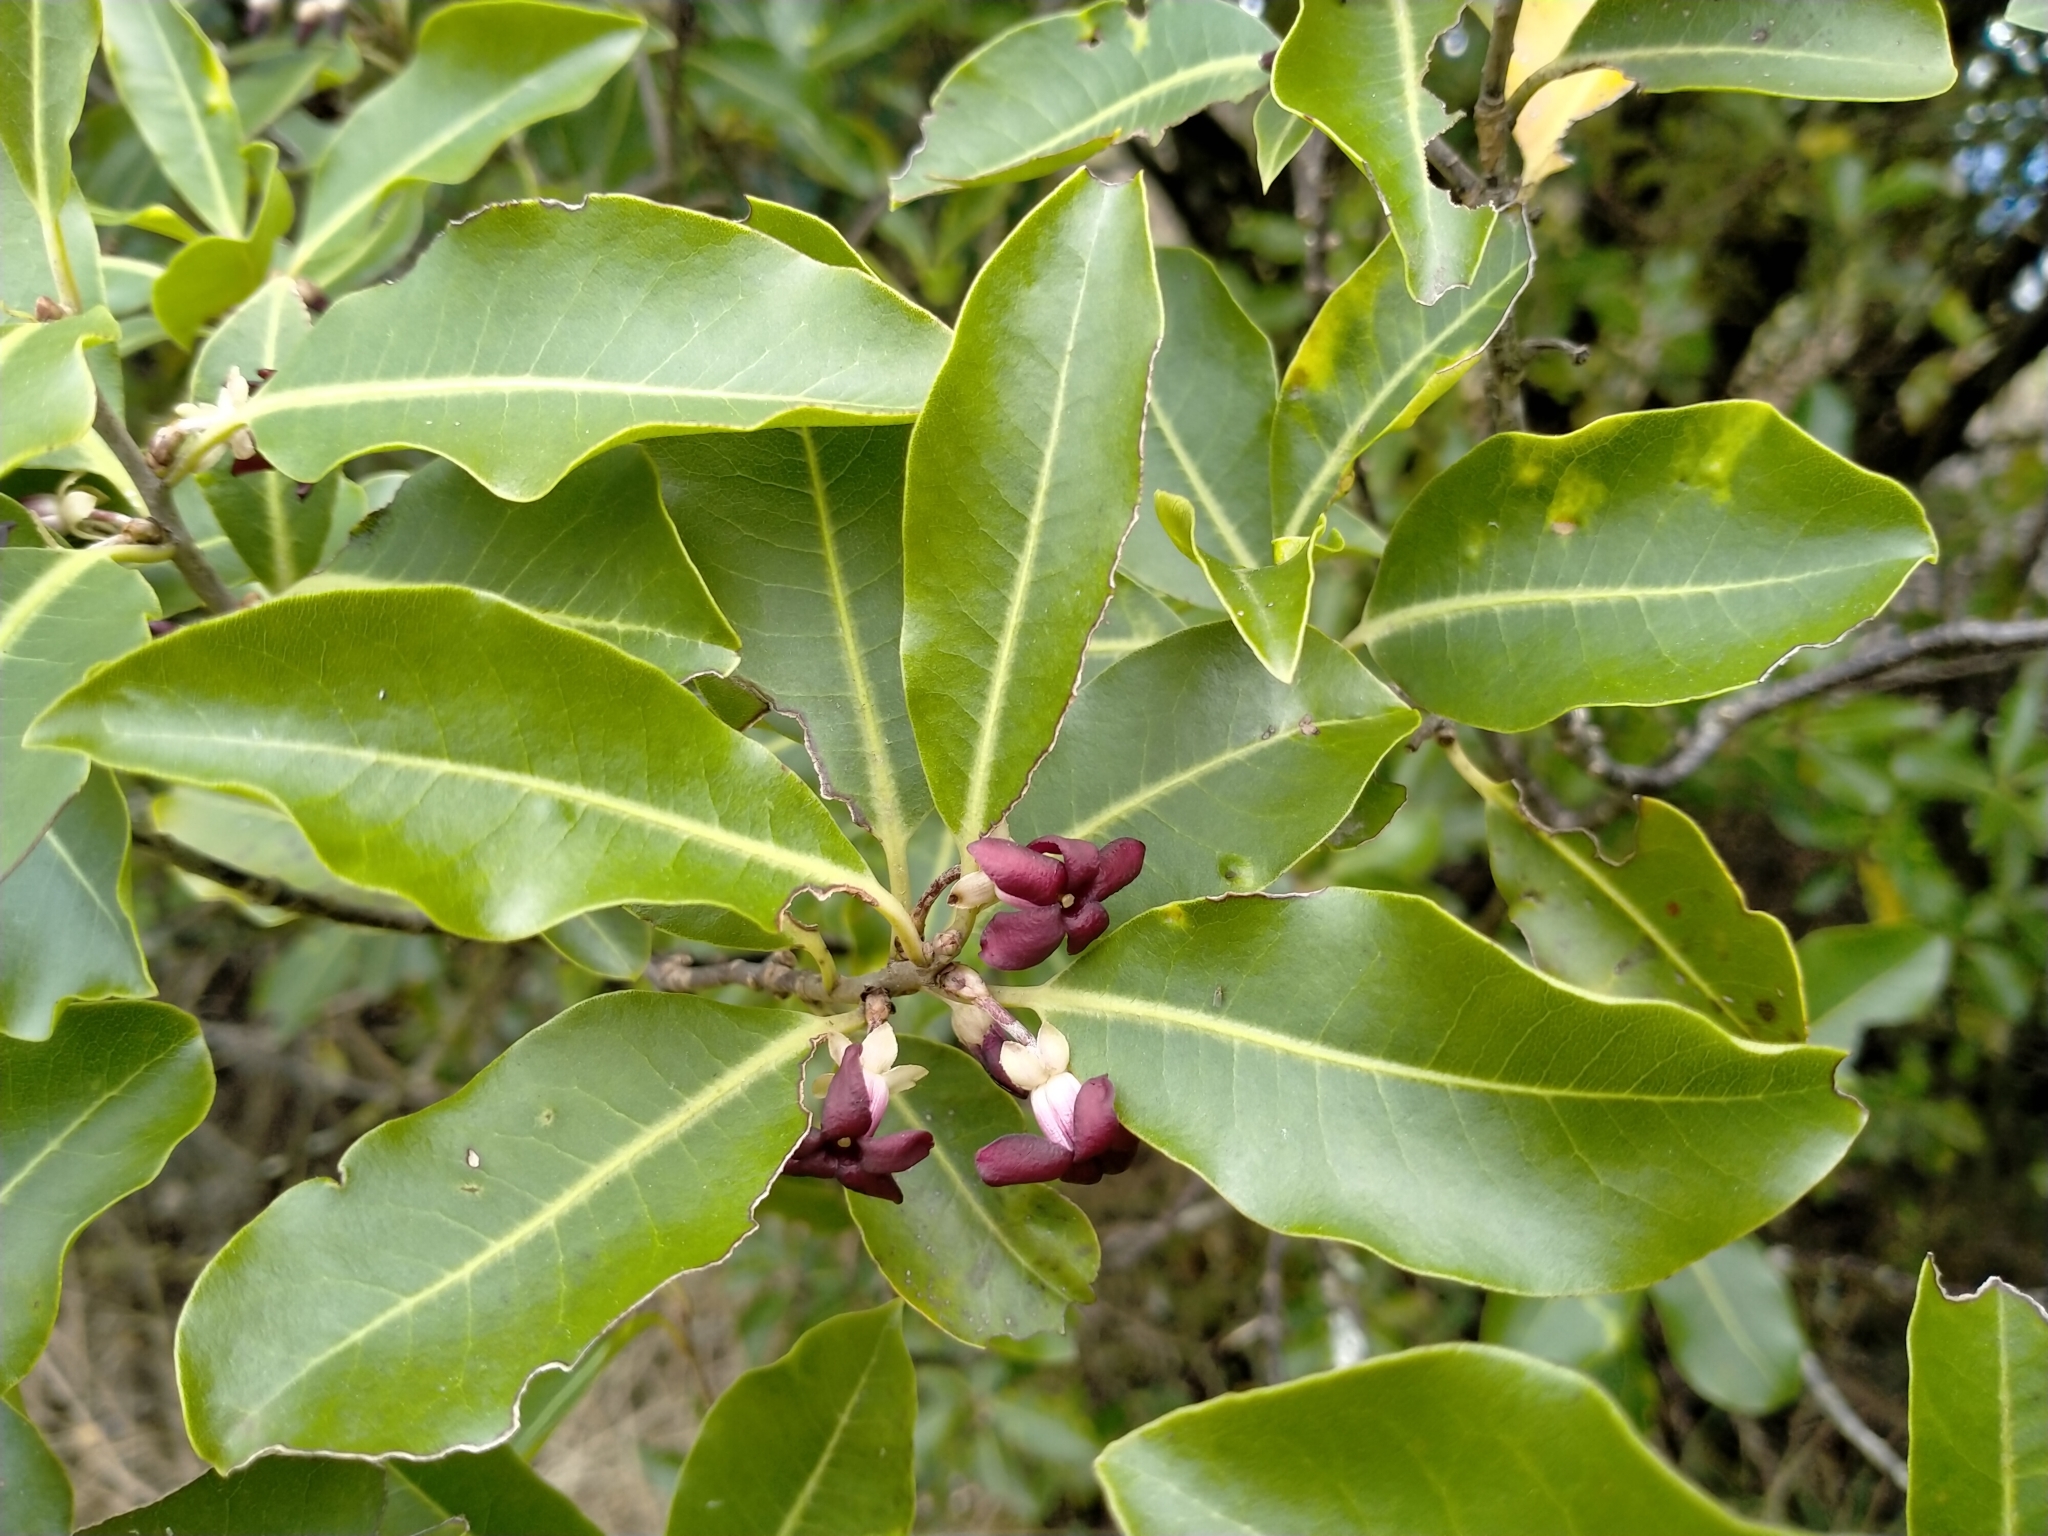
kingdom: Plantae
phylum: Tracheophyta
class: Magnoliopsida
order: Apiales
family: Pittosporaceae
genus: Pittosporum
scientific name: Pittosporum tenuifolium
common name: Kohuhu
